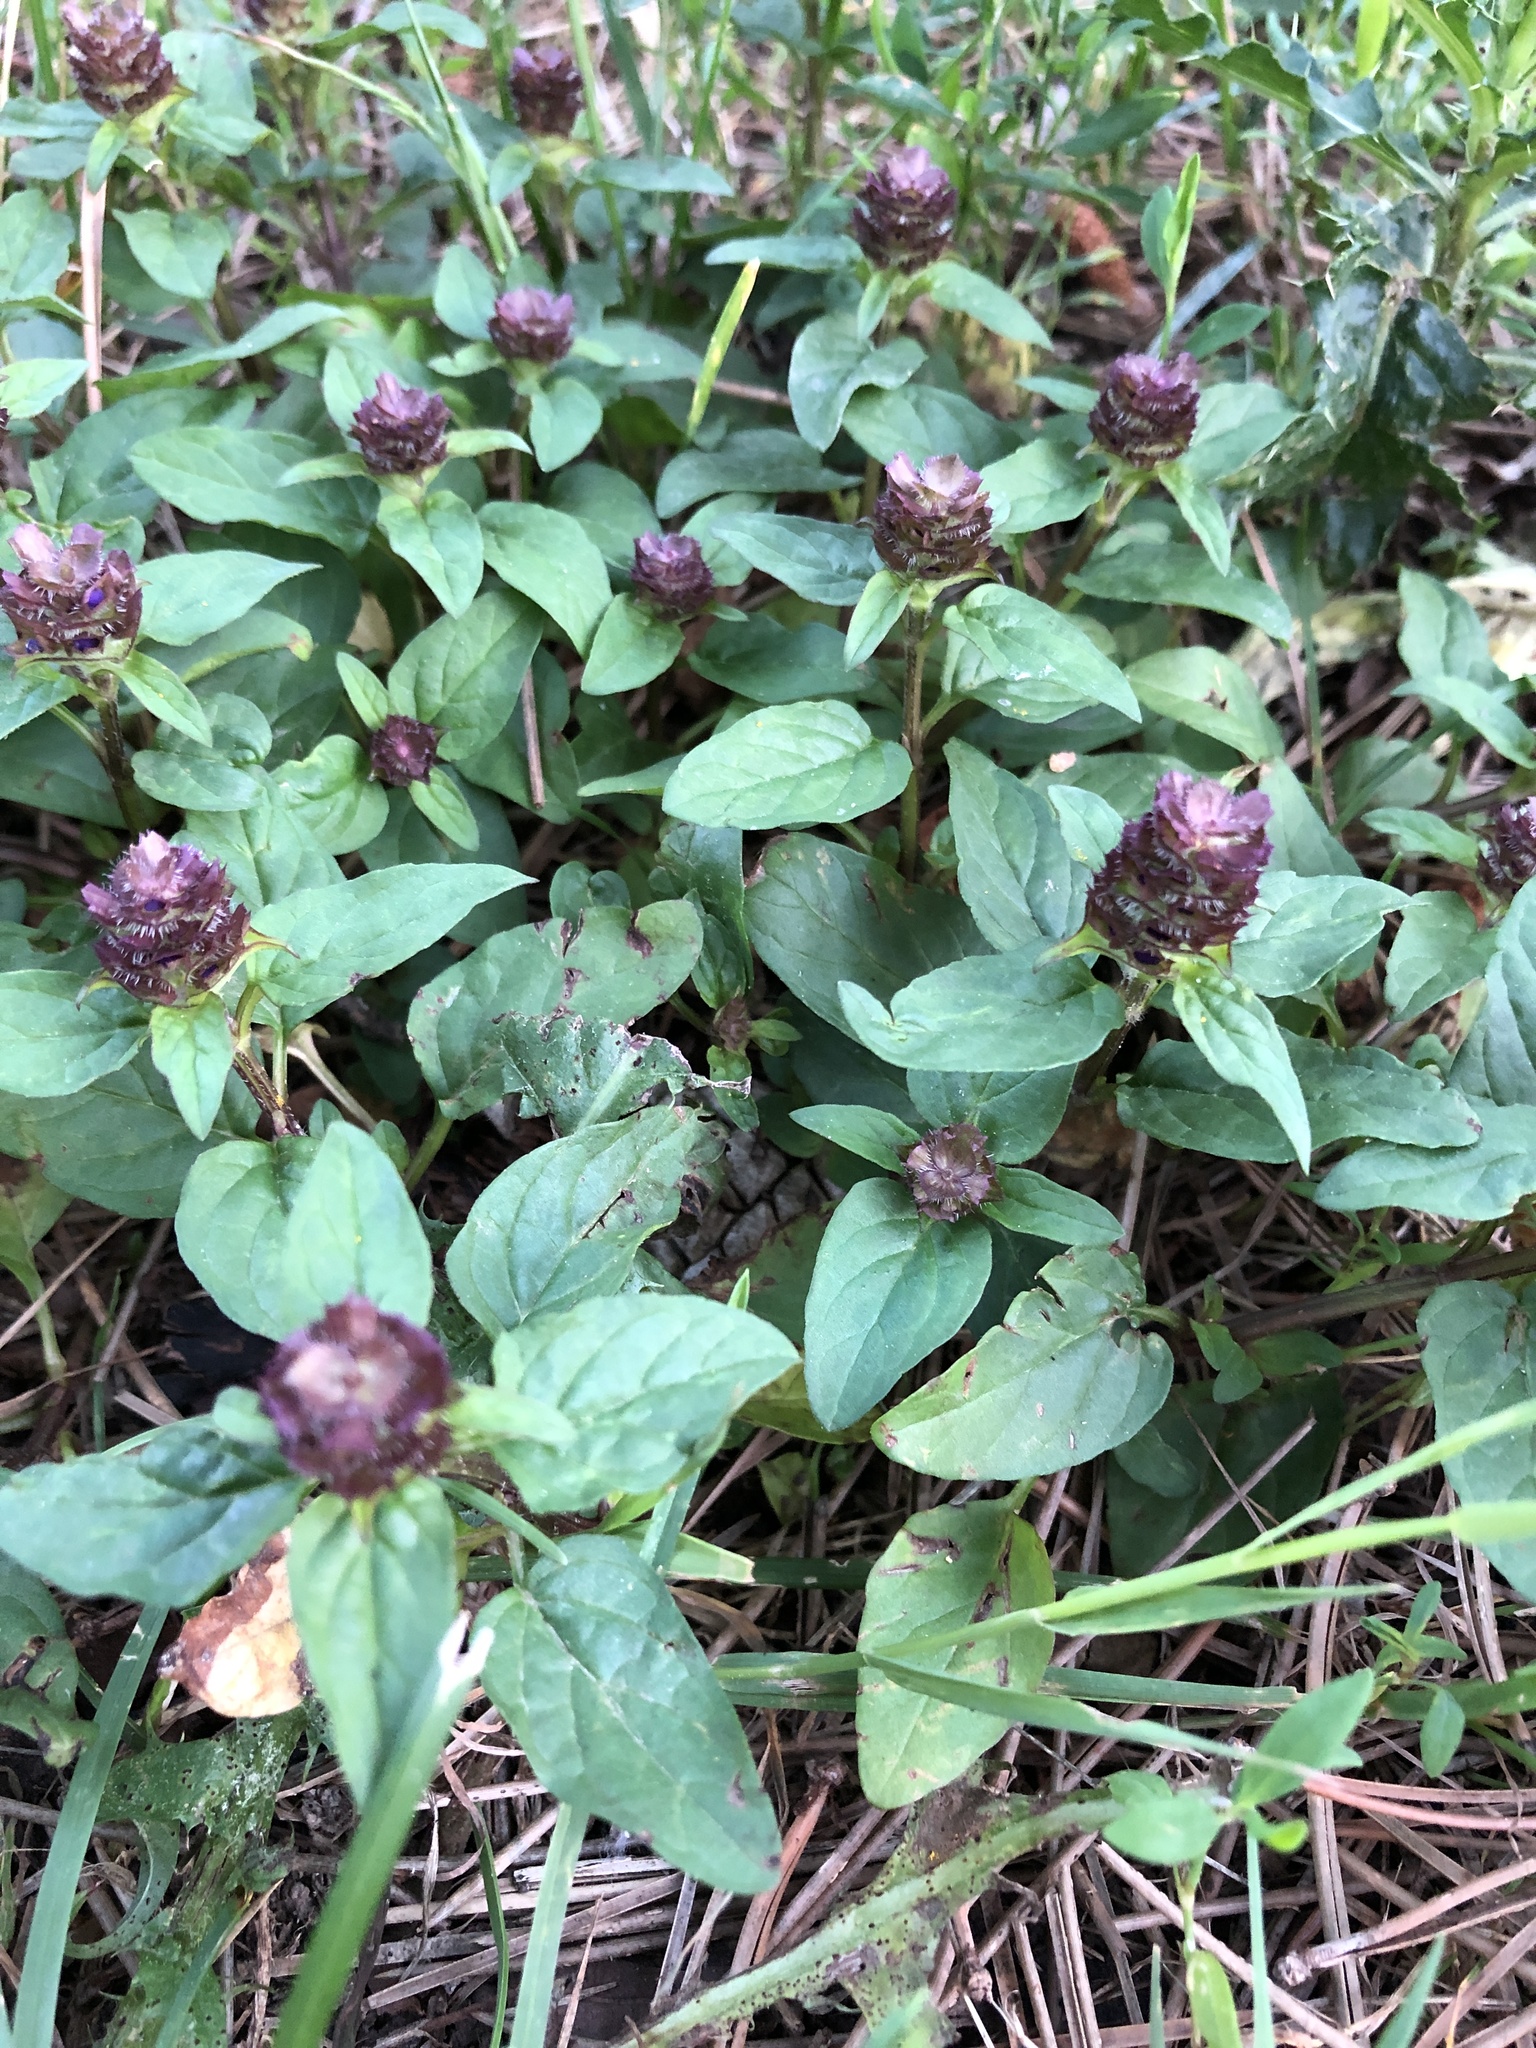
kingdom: Plantae
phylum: Tracheophyta
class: Magnoliopsida
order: Lamiales
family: Lamiaceae
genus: Prunella
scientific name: Prunella vulgaris
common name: Heal-all
